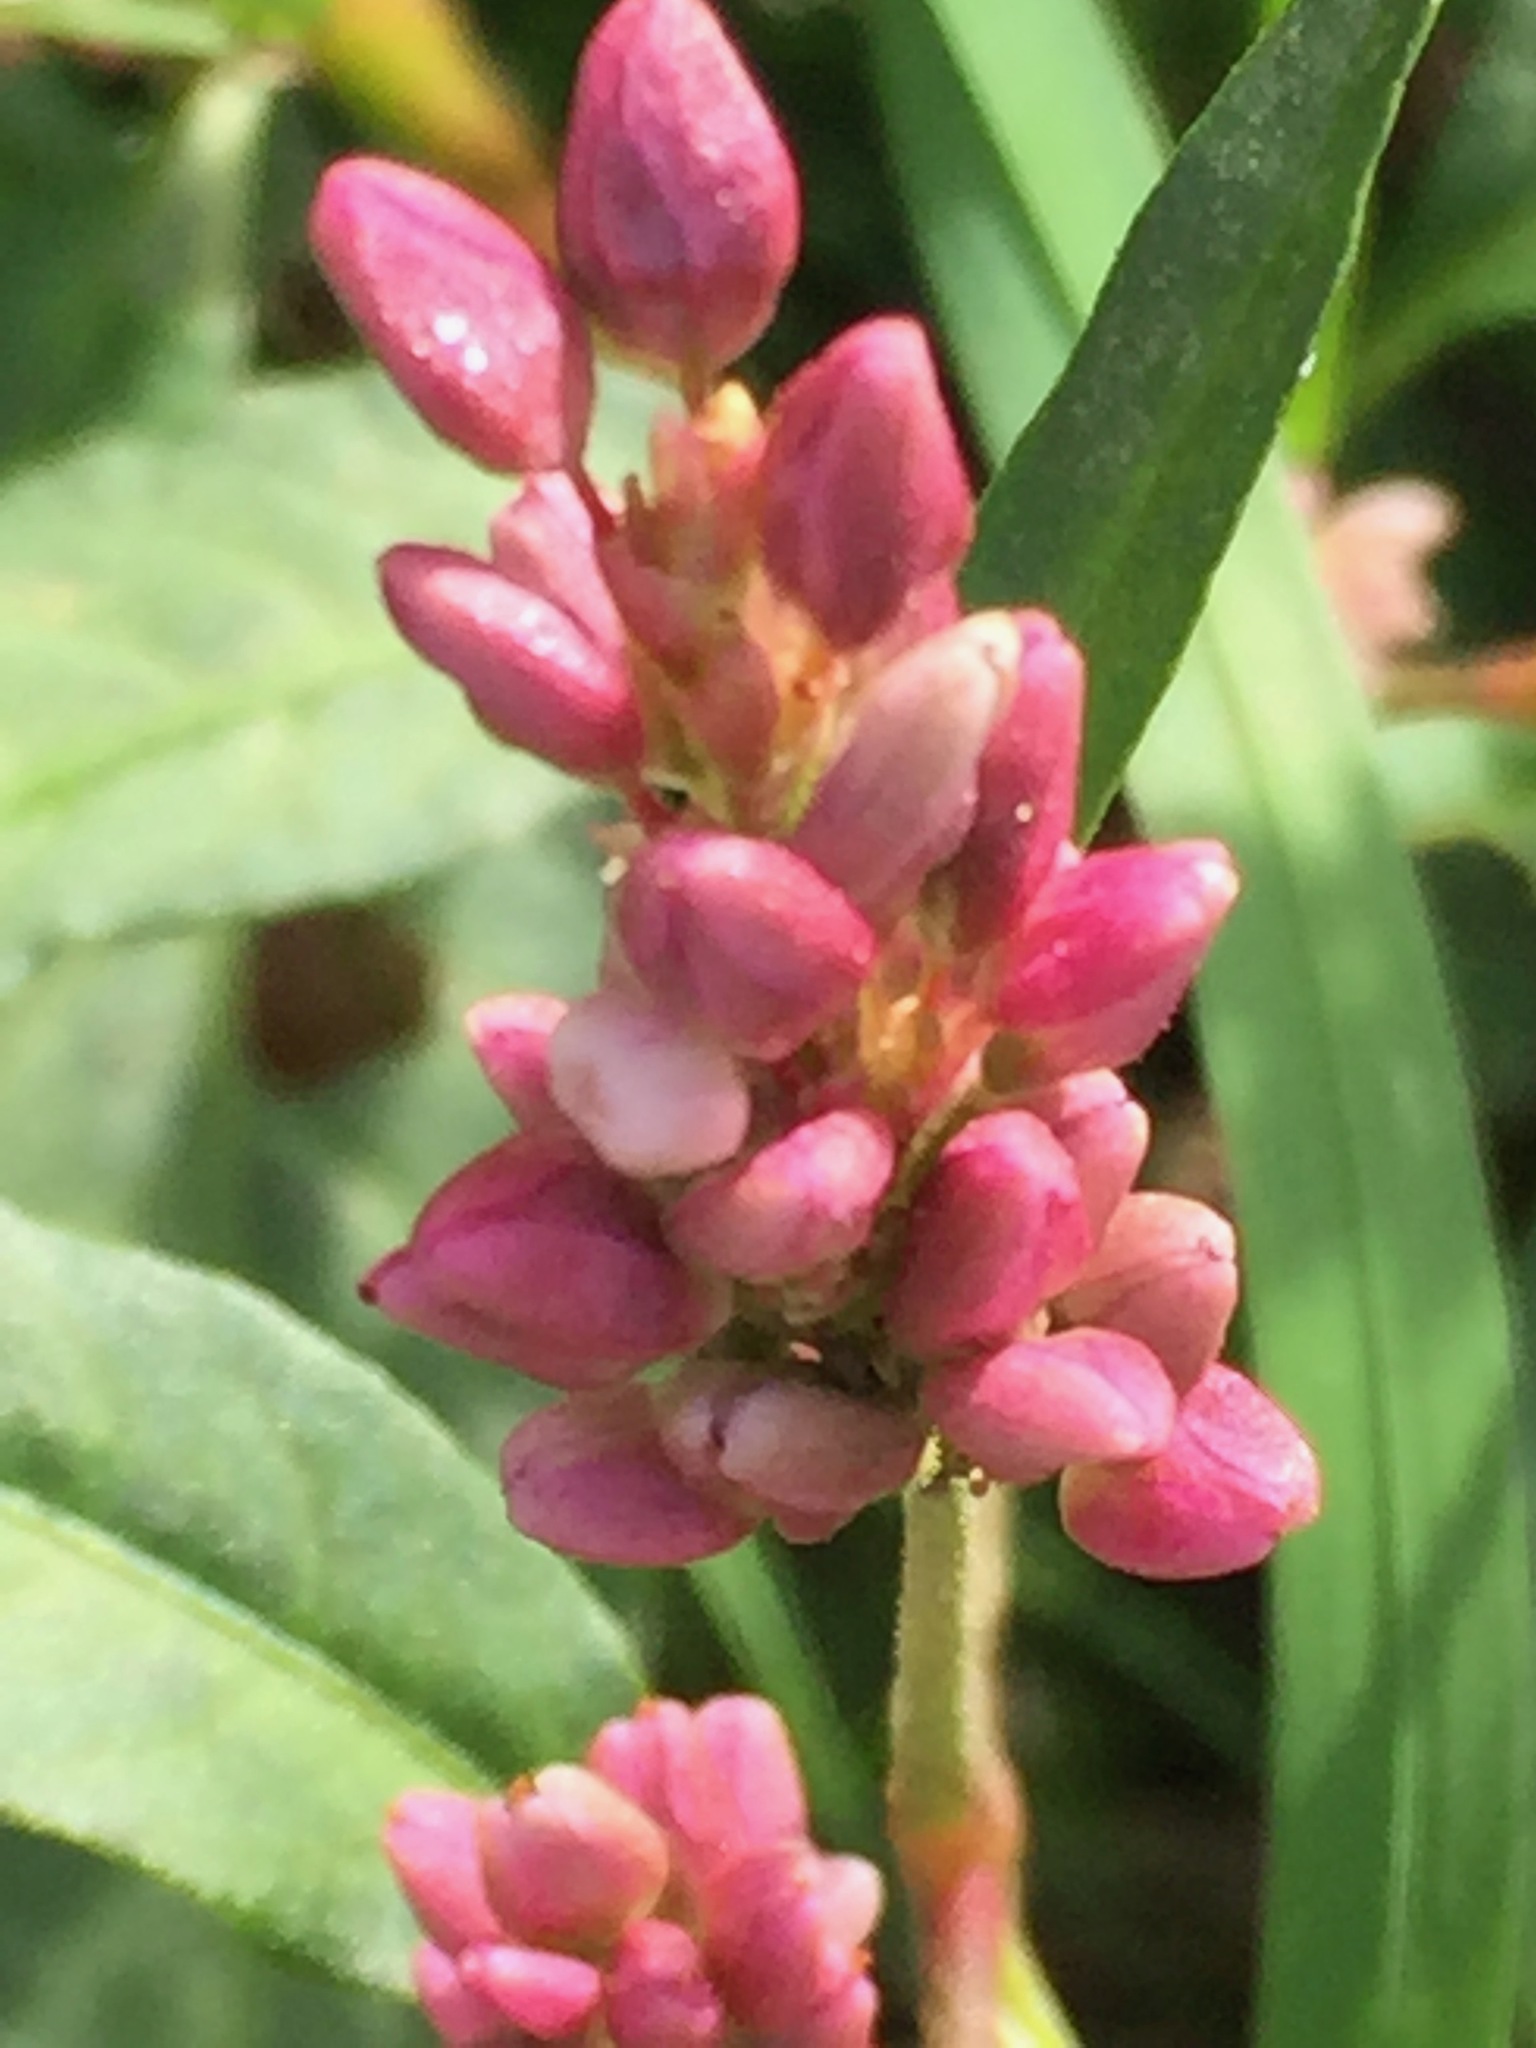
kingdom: Plantae
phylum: Tracheophyta
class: Magnoliopsida
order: Caryophyllales
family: Polygonaceae
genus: Persicaria
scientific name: Persicaria pensylvanica
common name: Pinkweed
